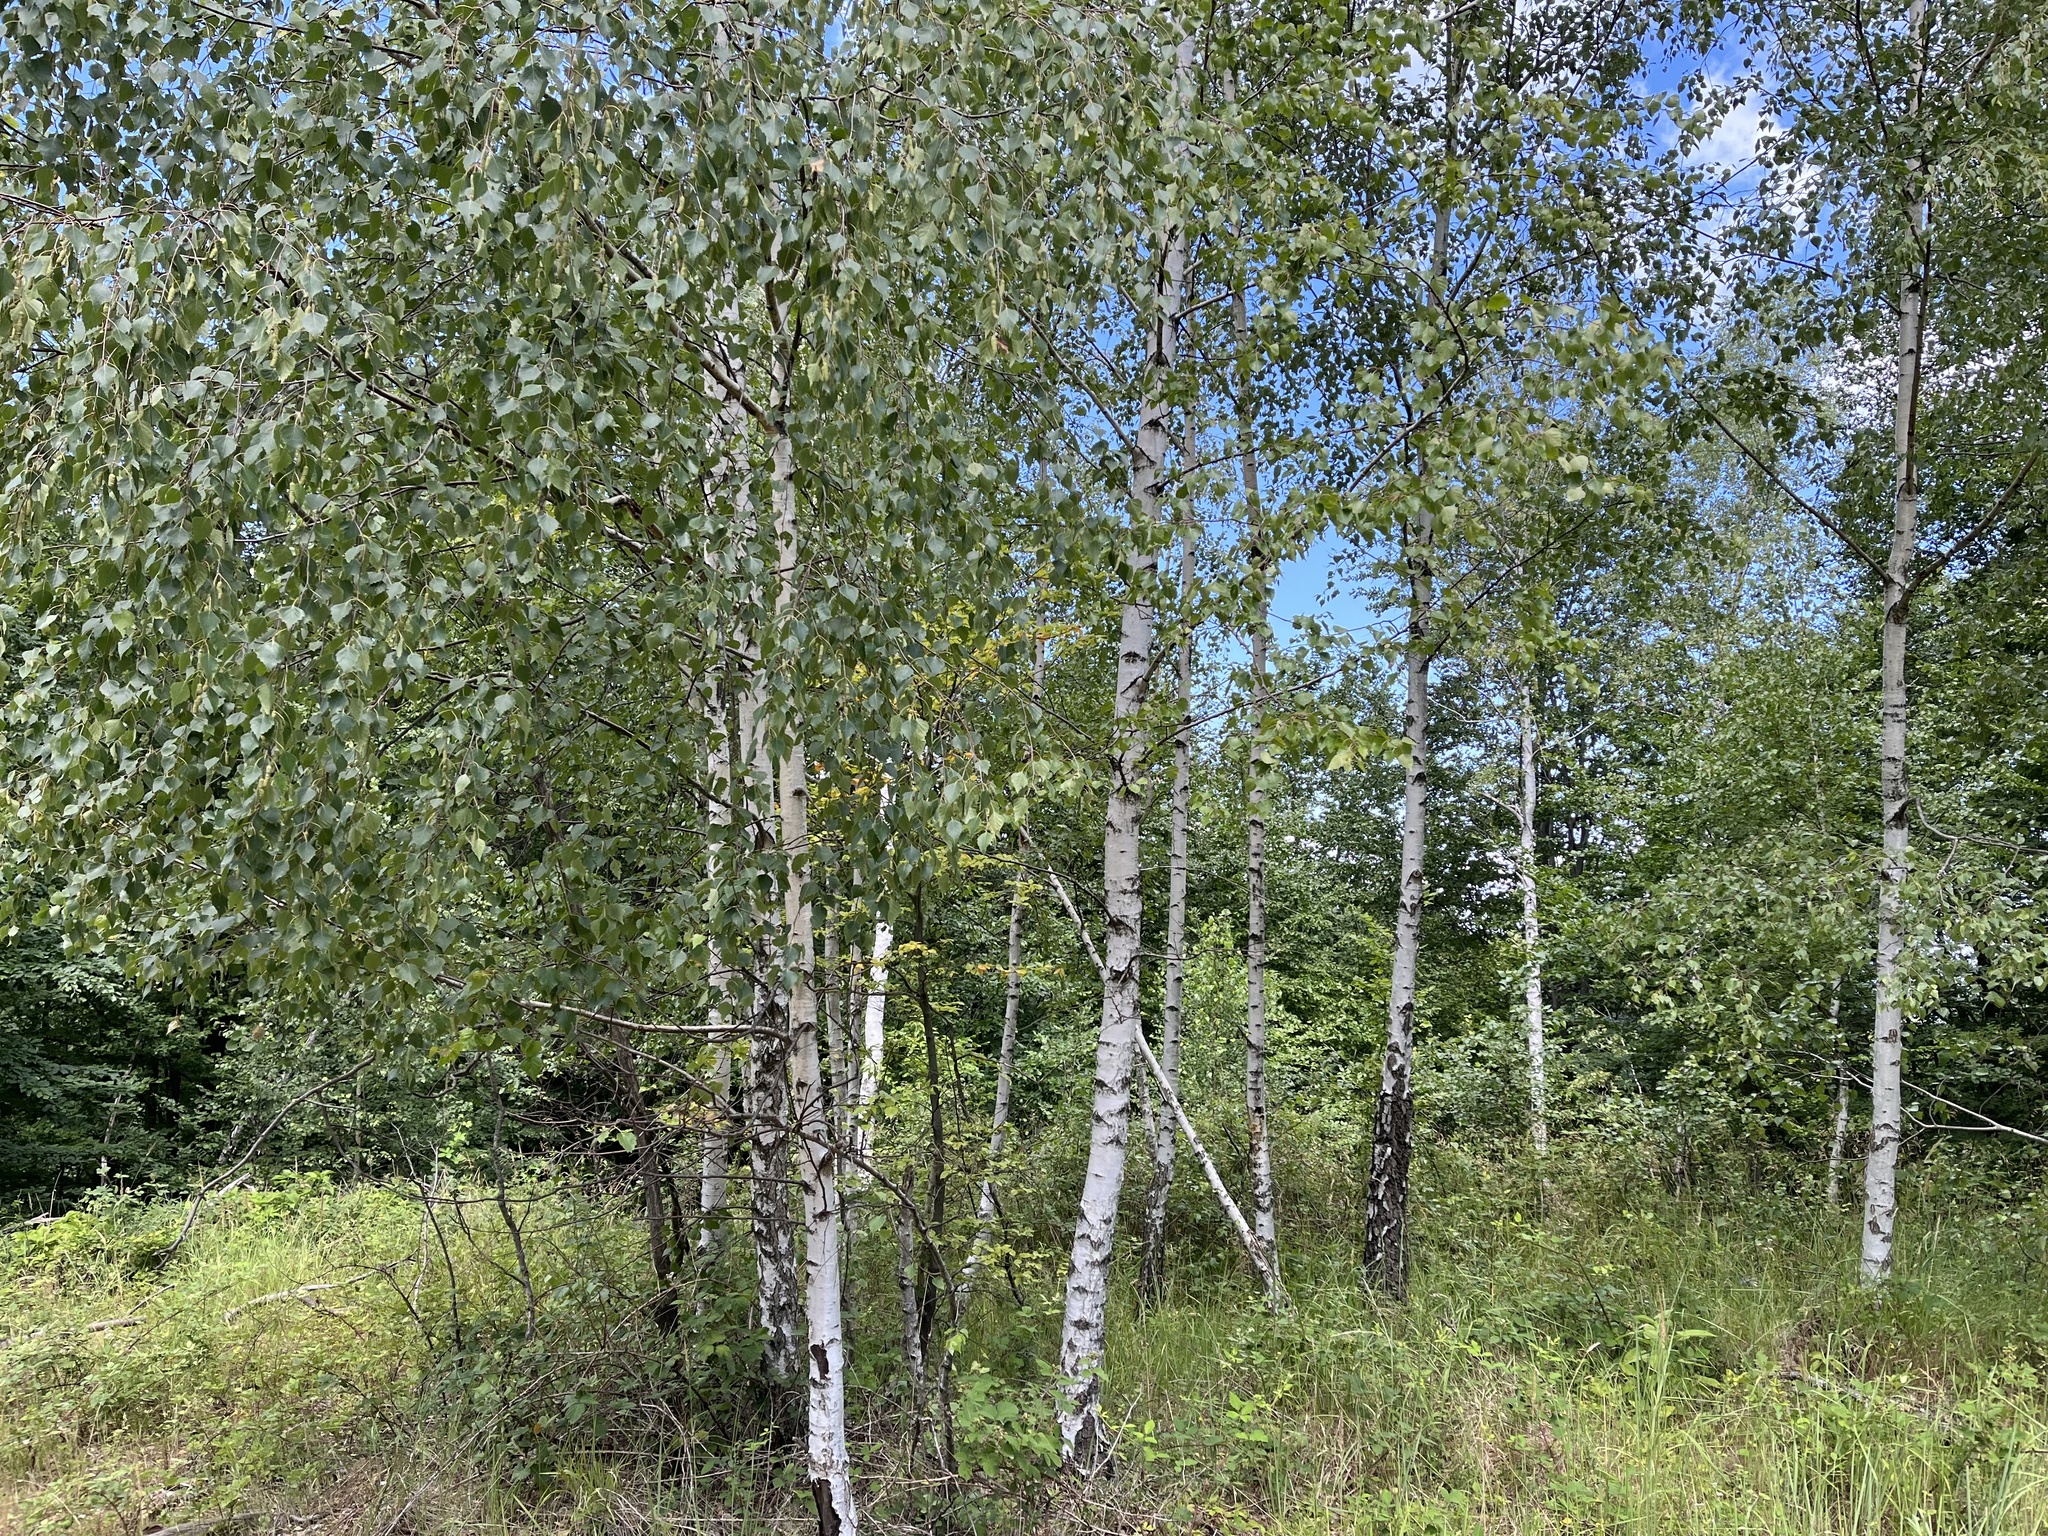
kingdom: Plantae
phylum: Tracheophyta
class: Magnoliopsida
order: Fagales
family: Betulaceae
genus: Betula
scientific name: Betula pendula
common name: Silver birch
